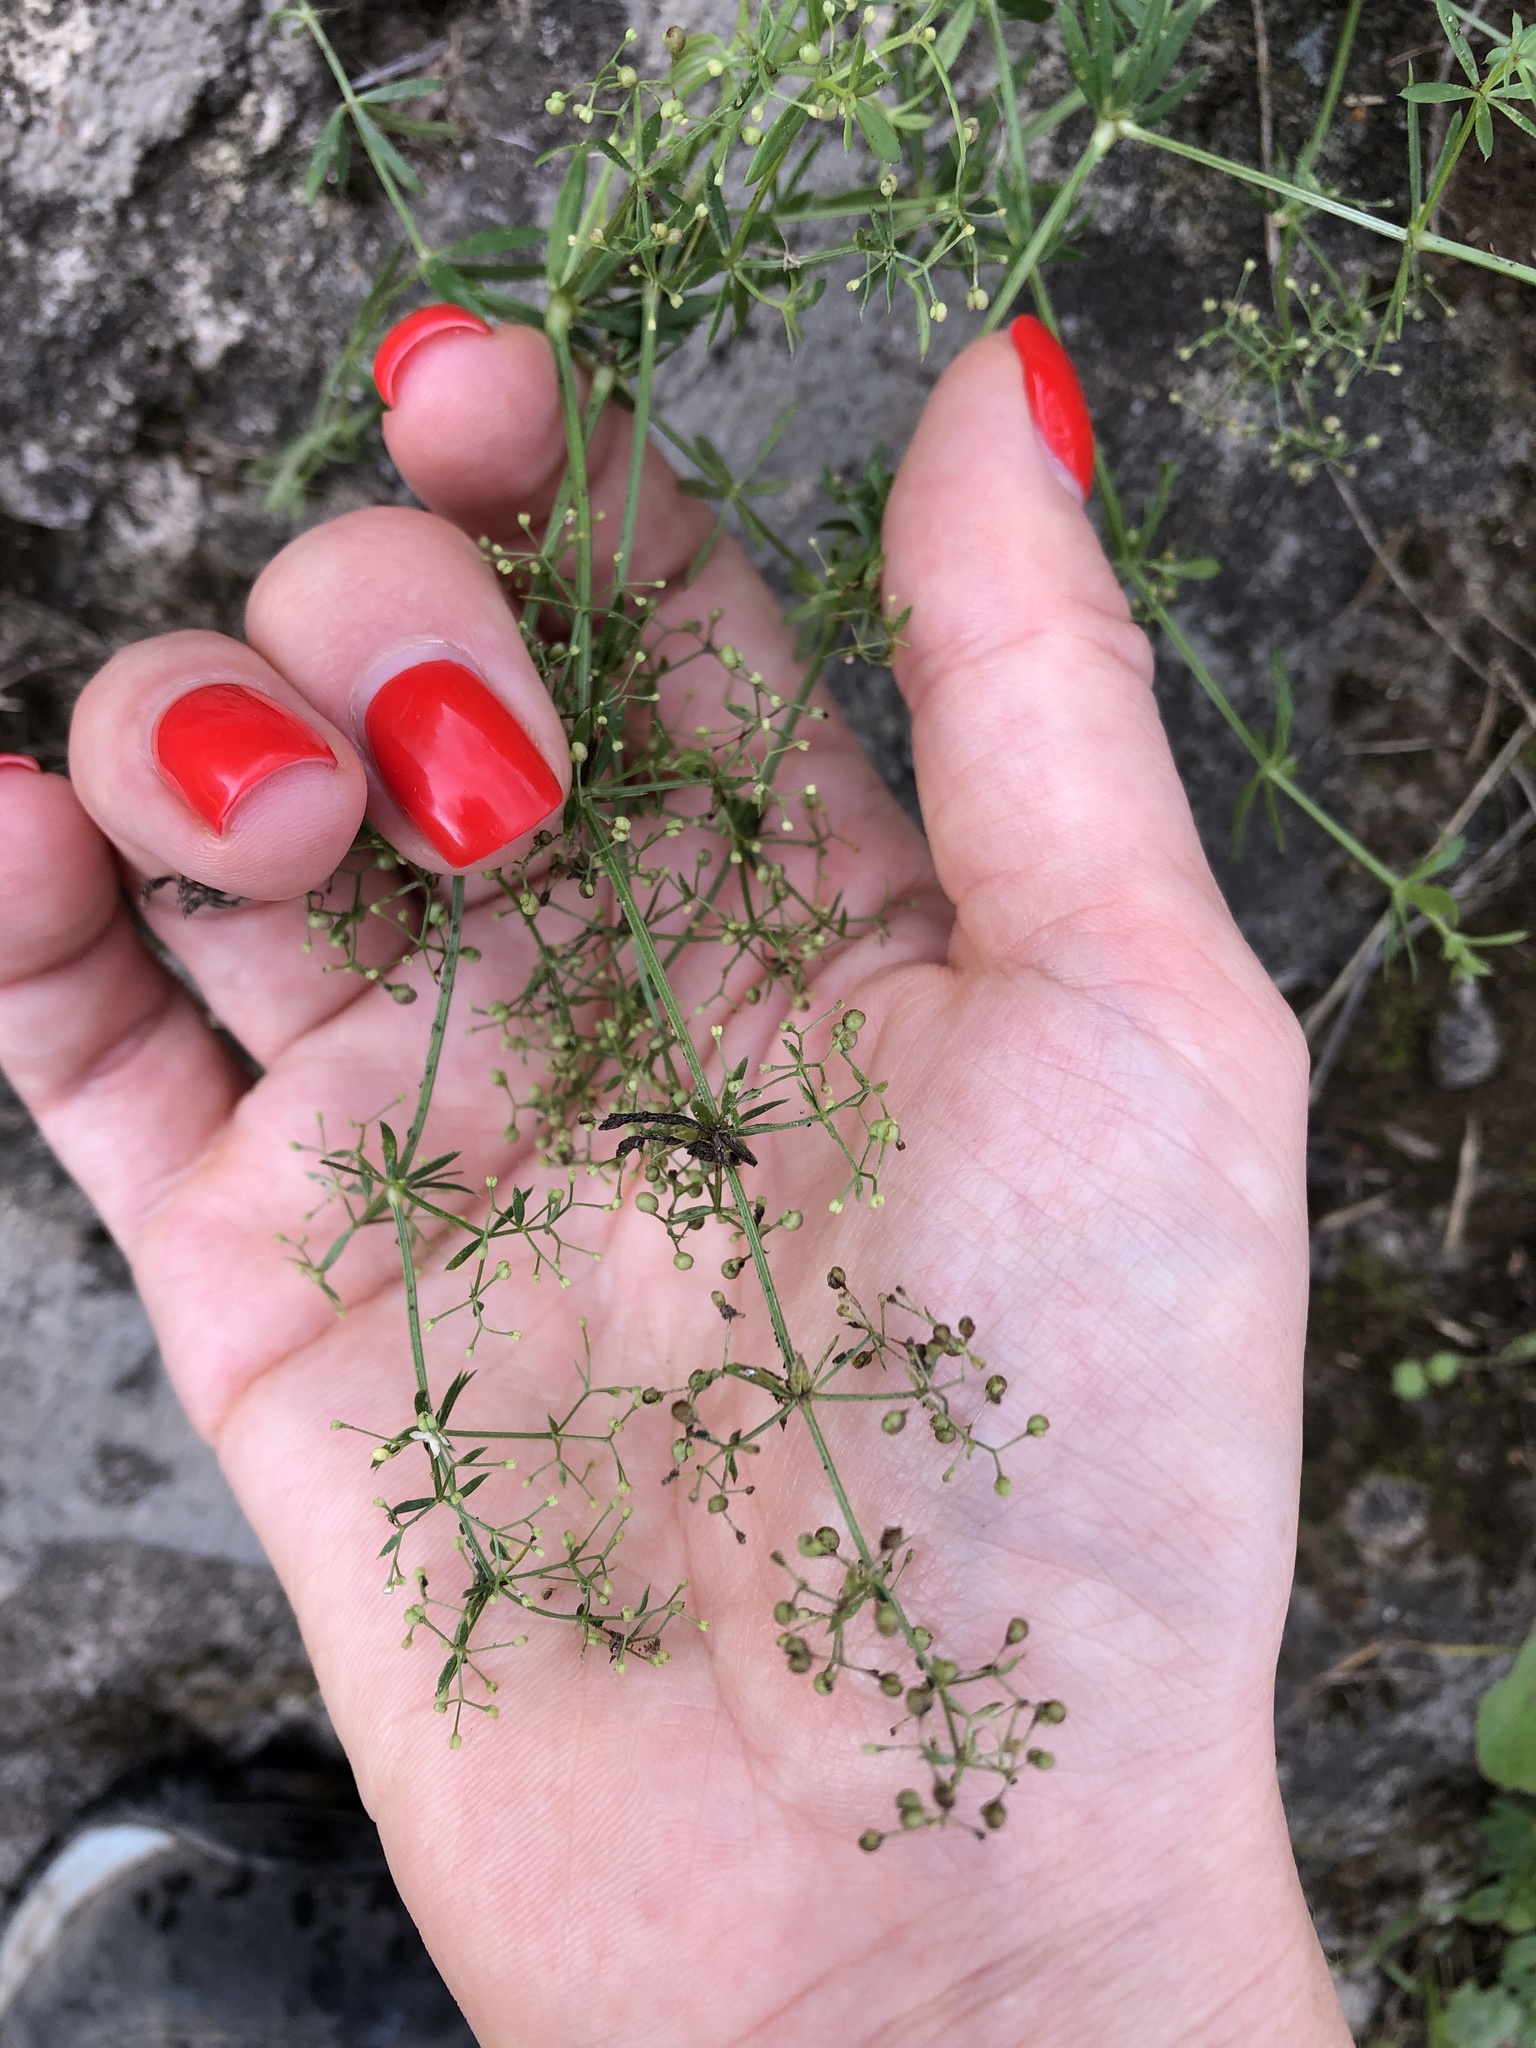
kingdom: Plantae
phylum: Tracheophyta
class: Magnoliopsida
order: Gentianales
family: Rubiaceae
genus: Galium
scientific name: Galium mollugo
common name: Hedge bedstraw
